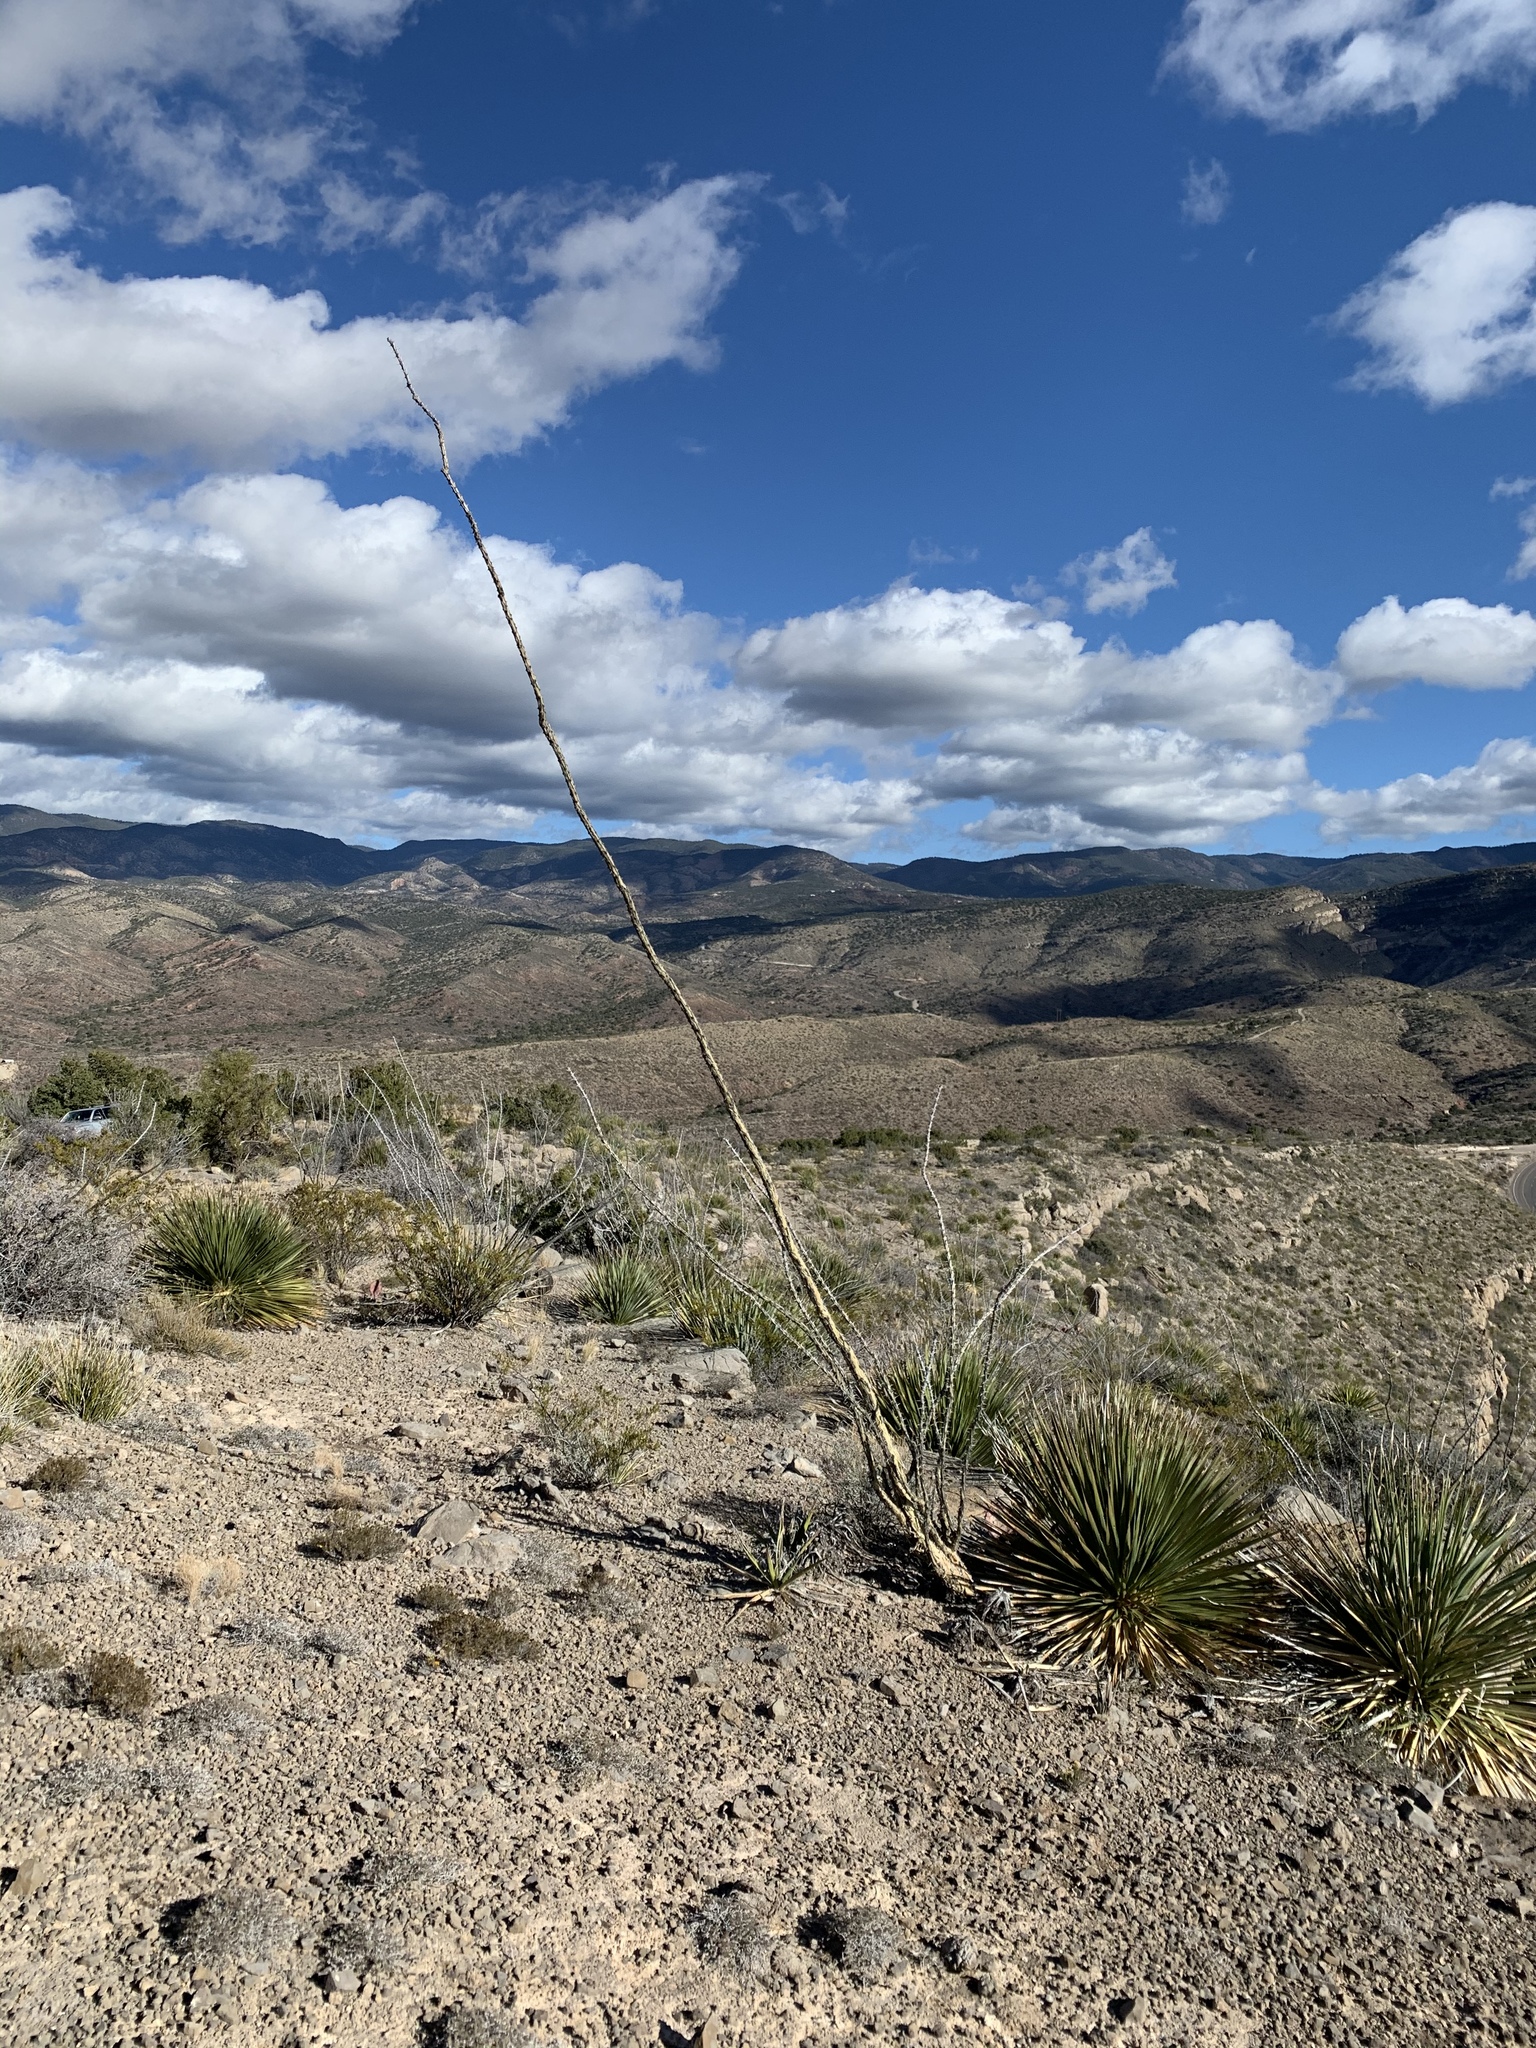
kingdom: Plantae
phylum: Tracheophyta
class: Magnoliopsida
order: Ericales
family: Fouquieriaceae
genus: Fouquieria
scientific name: Fouquieria splendens
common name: Vine-cactus
